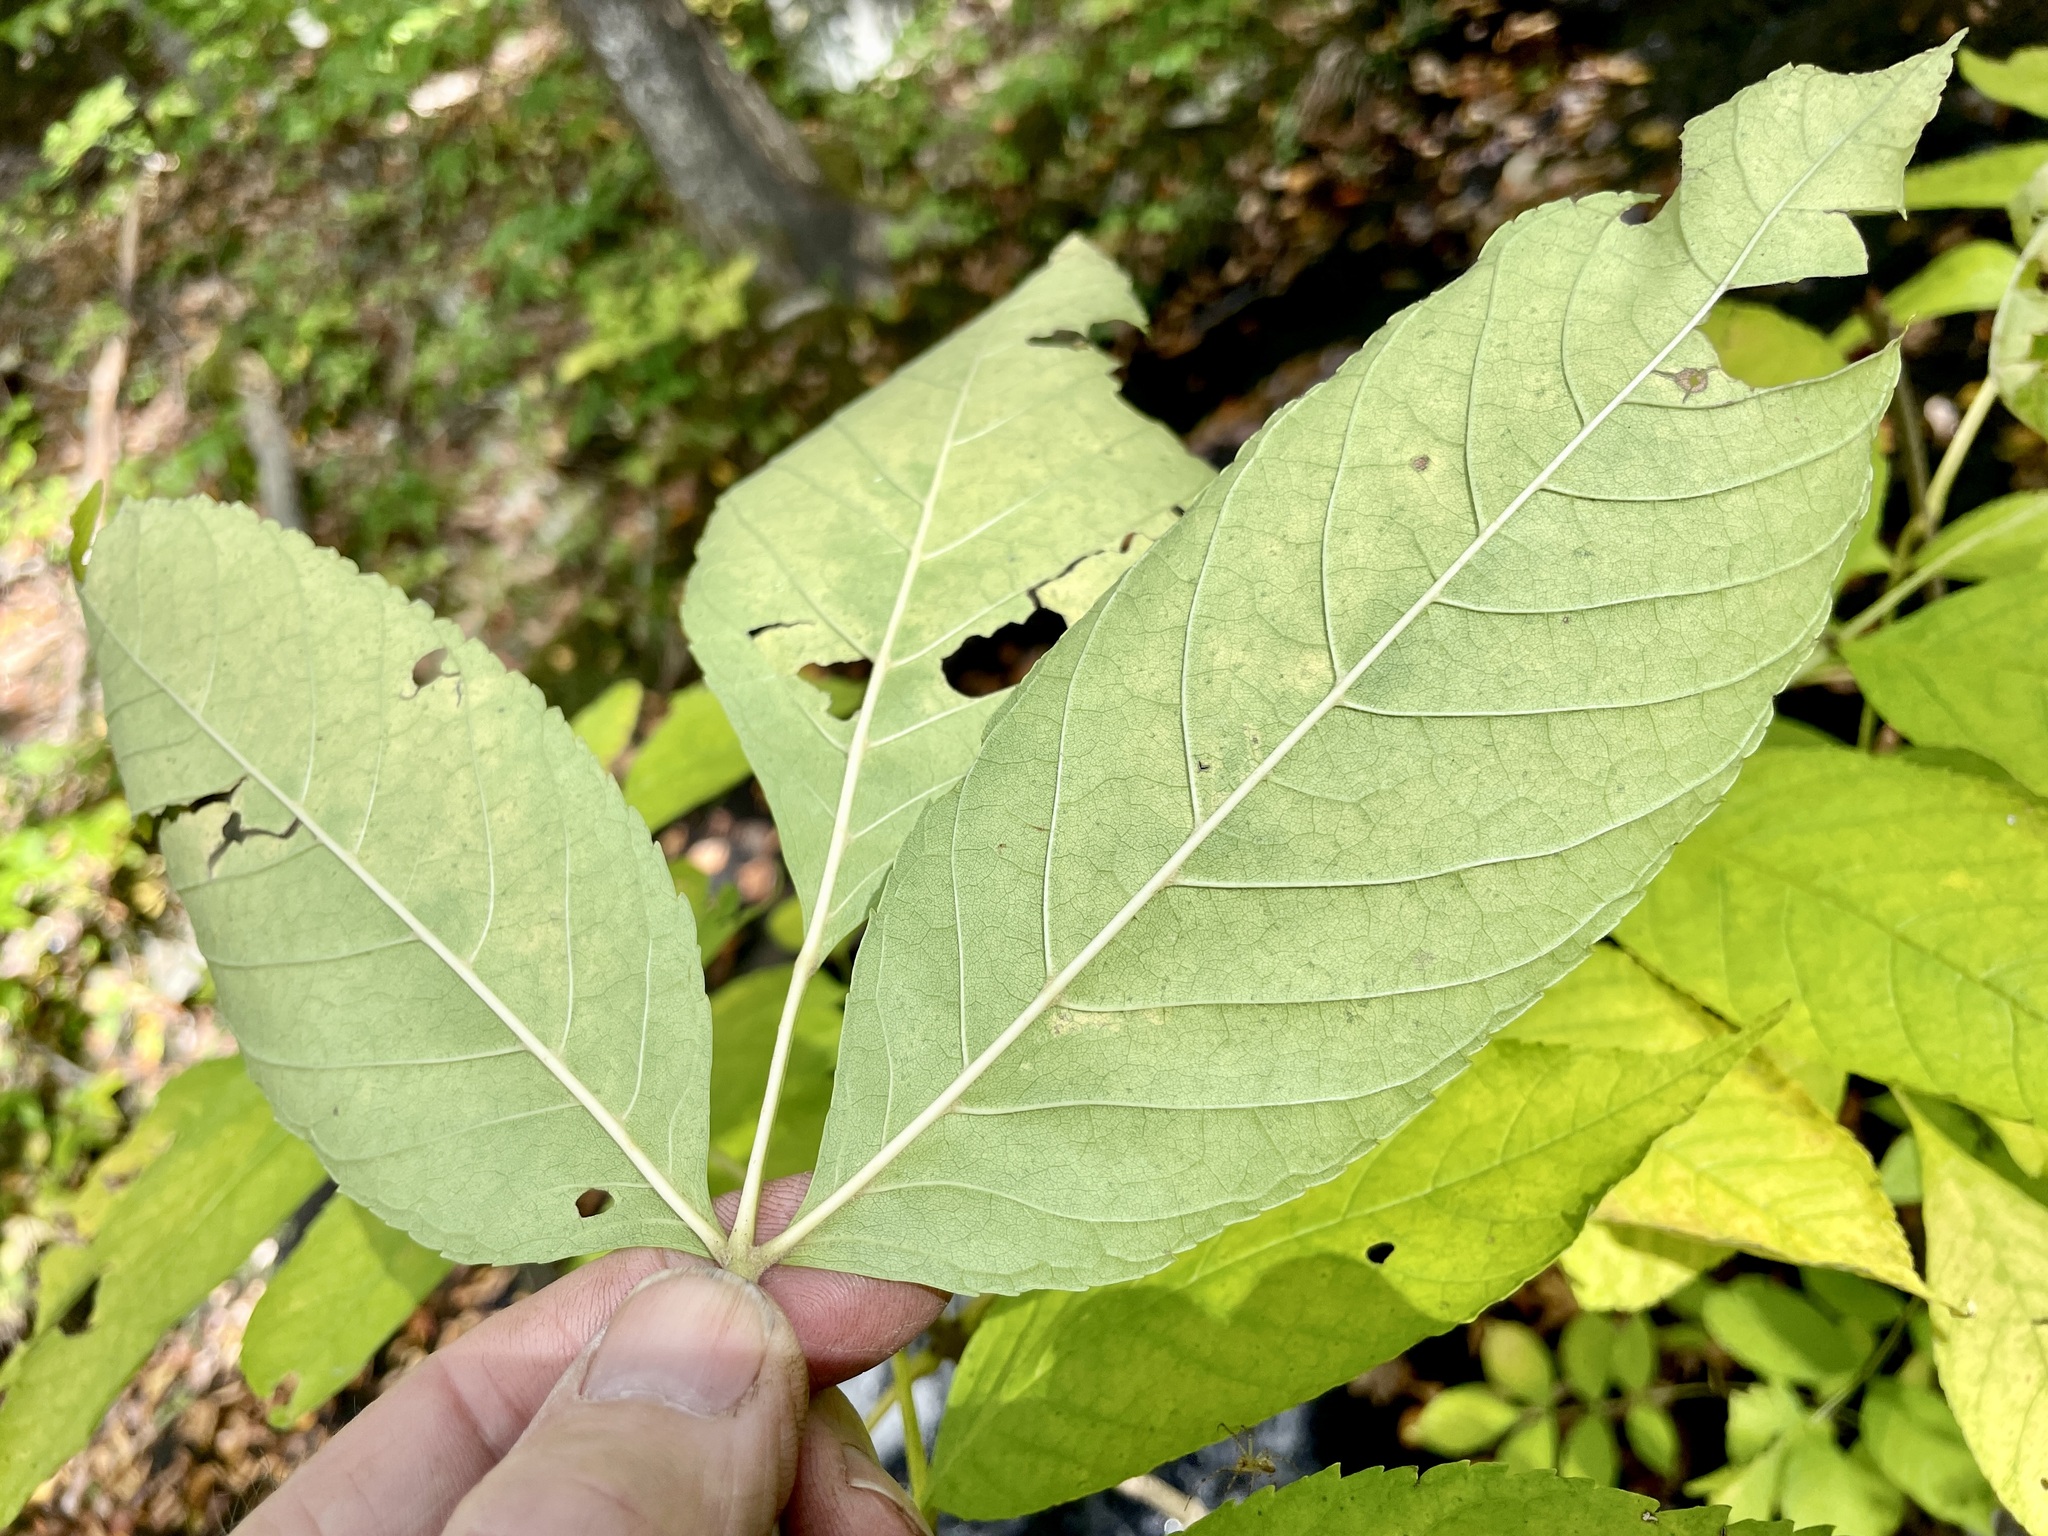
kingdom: Plantae
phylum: Tracheophyta
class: Magnoliopsida
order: Lamiales
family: Oleaceae
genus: Fraxinus
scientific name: Fraxinus nigra
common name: Black ash
